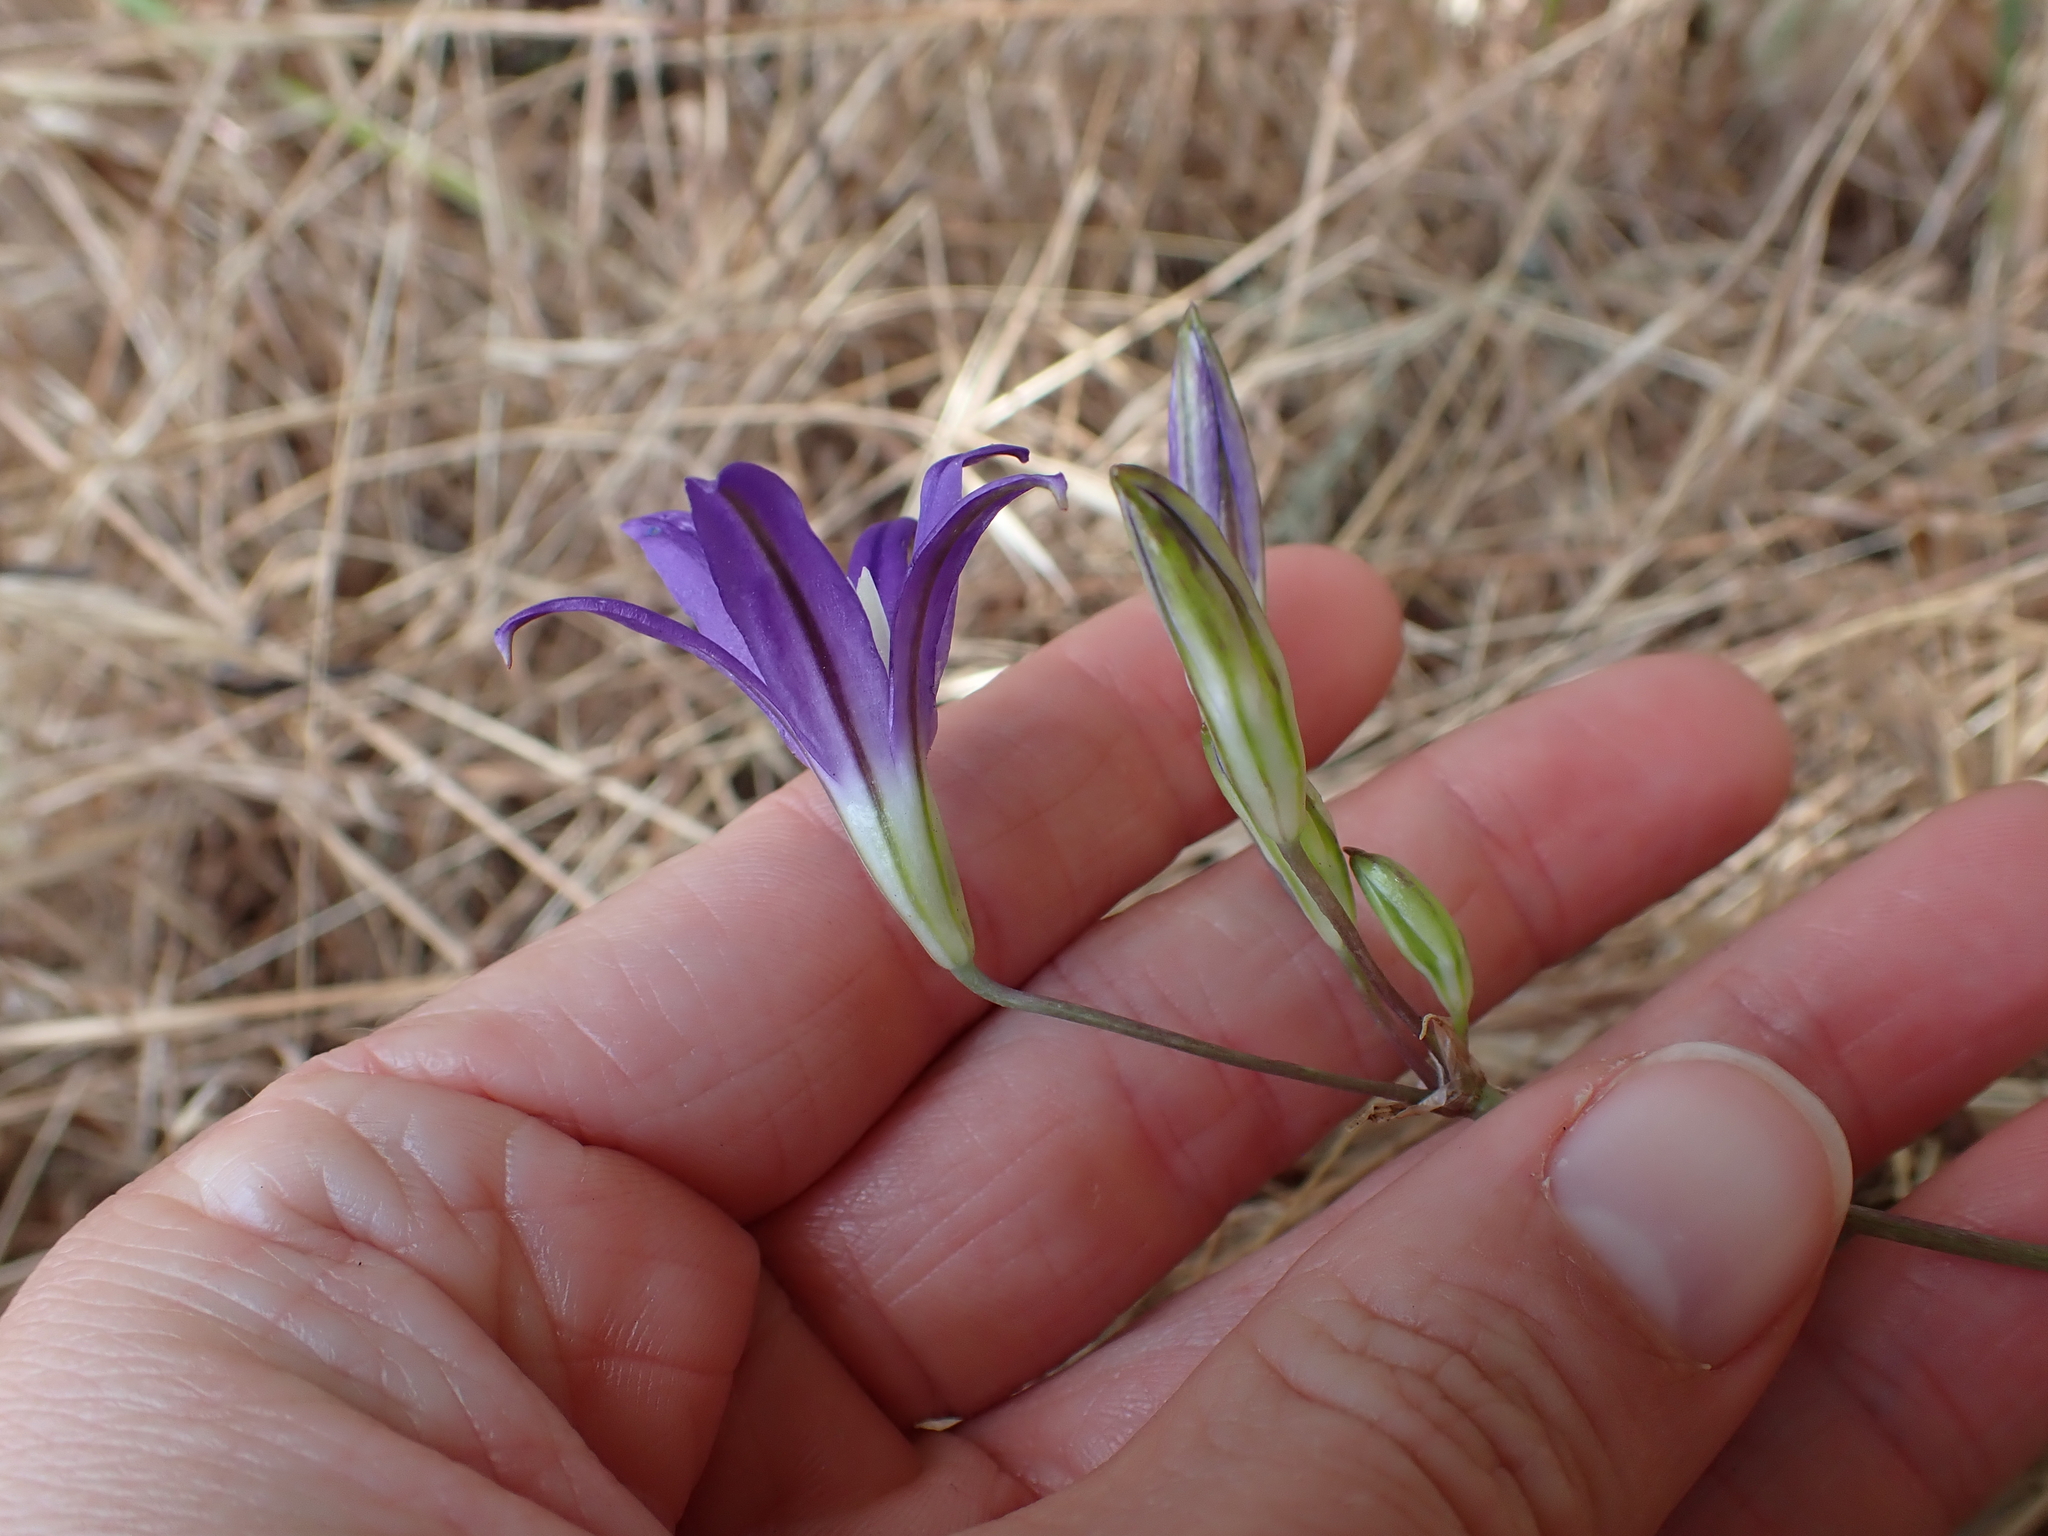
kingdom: Plantae
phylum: Tracheophyta
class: Liliopsida
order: Asparagales
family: Asparagaceae
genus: Brodiaea
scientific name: Brodiaea coronaria
